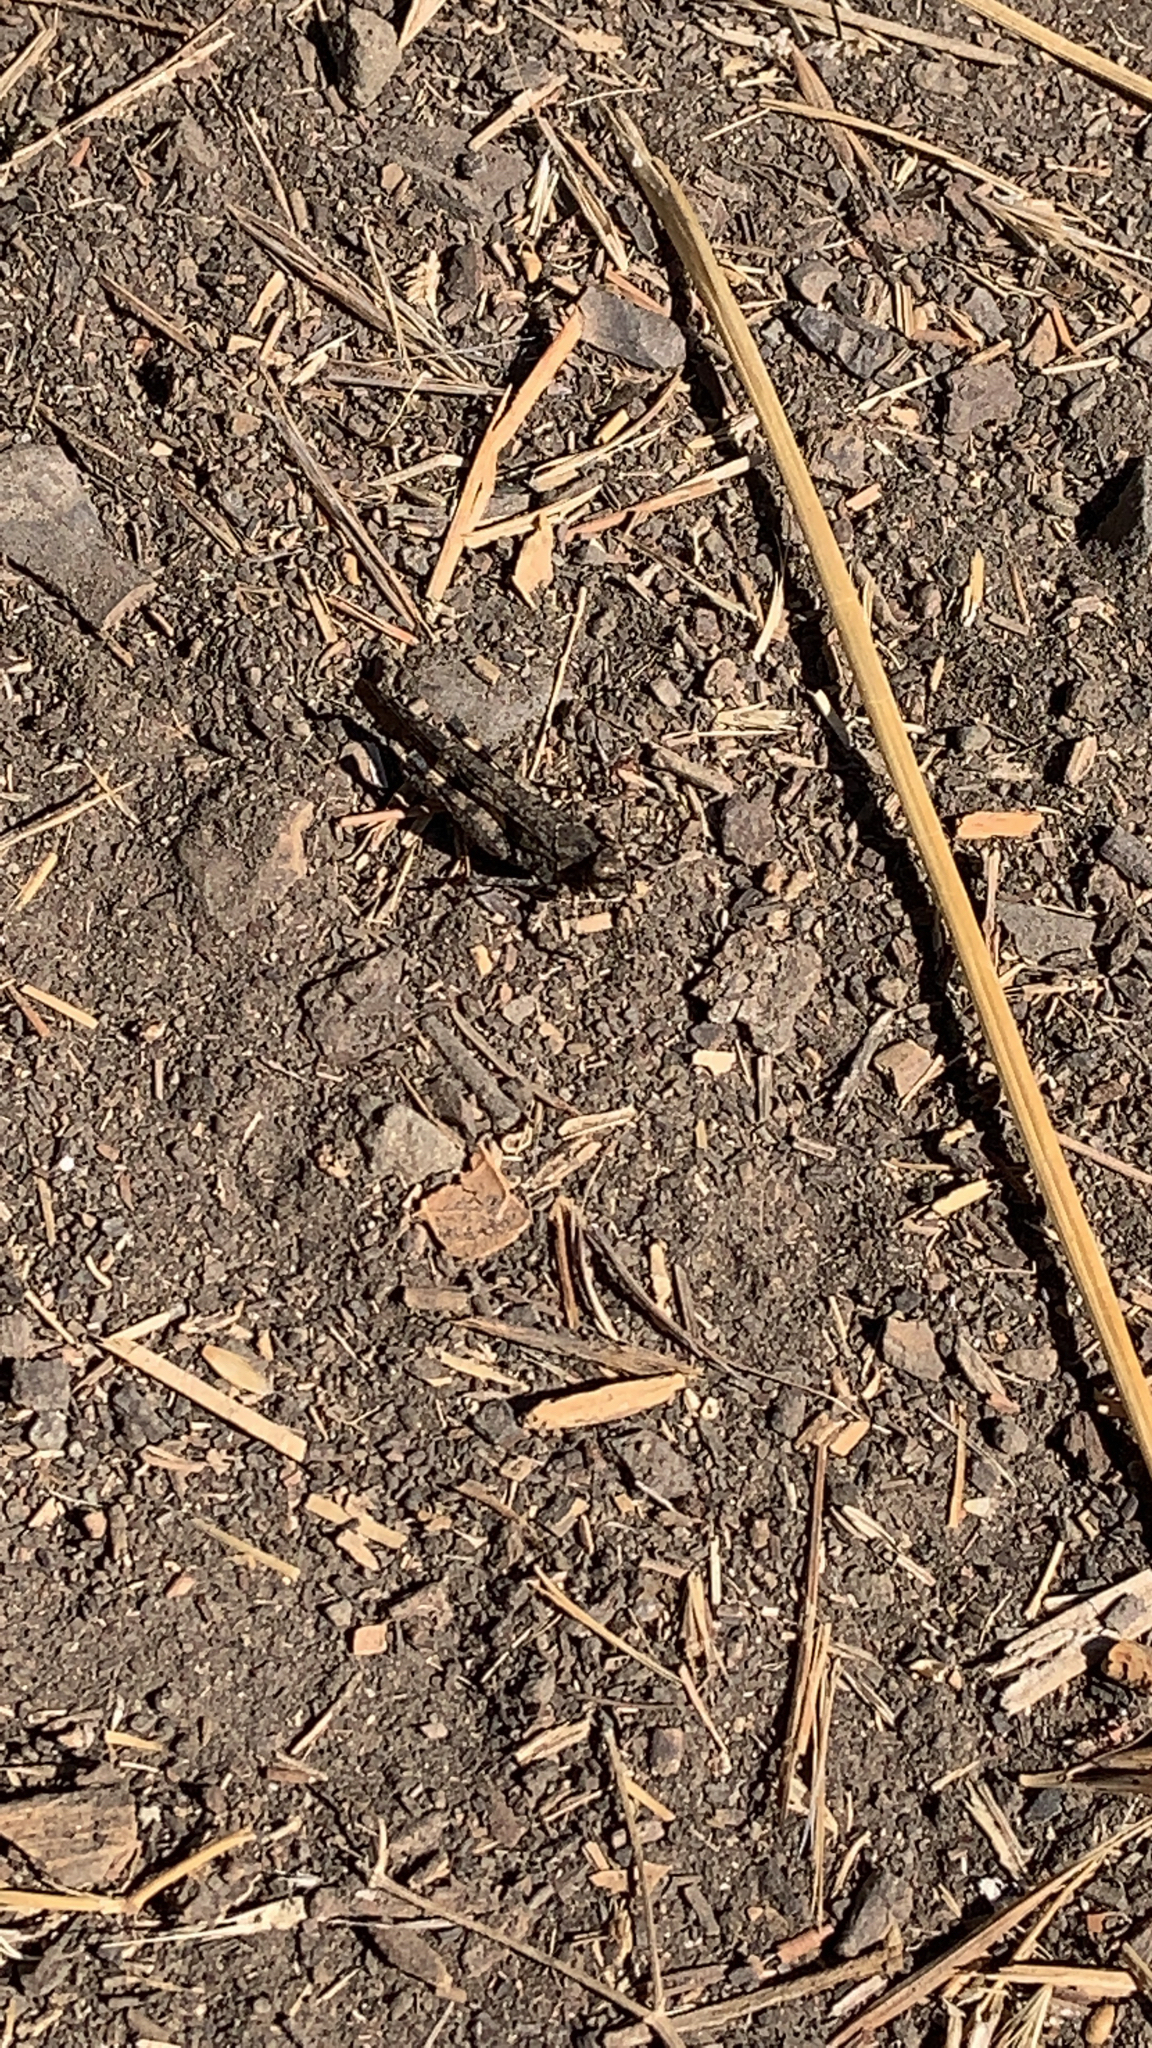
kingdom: Animalia
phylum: Arthropoda
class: Insecta
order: Orthoptera
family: Acrididae
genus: Trimerotropis
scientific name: Trimerotropis fontana
